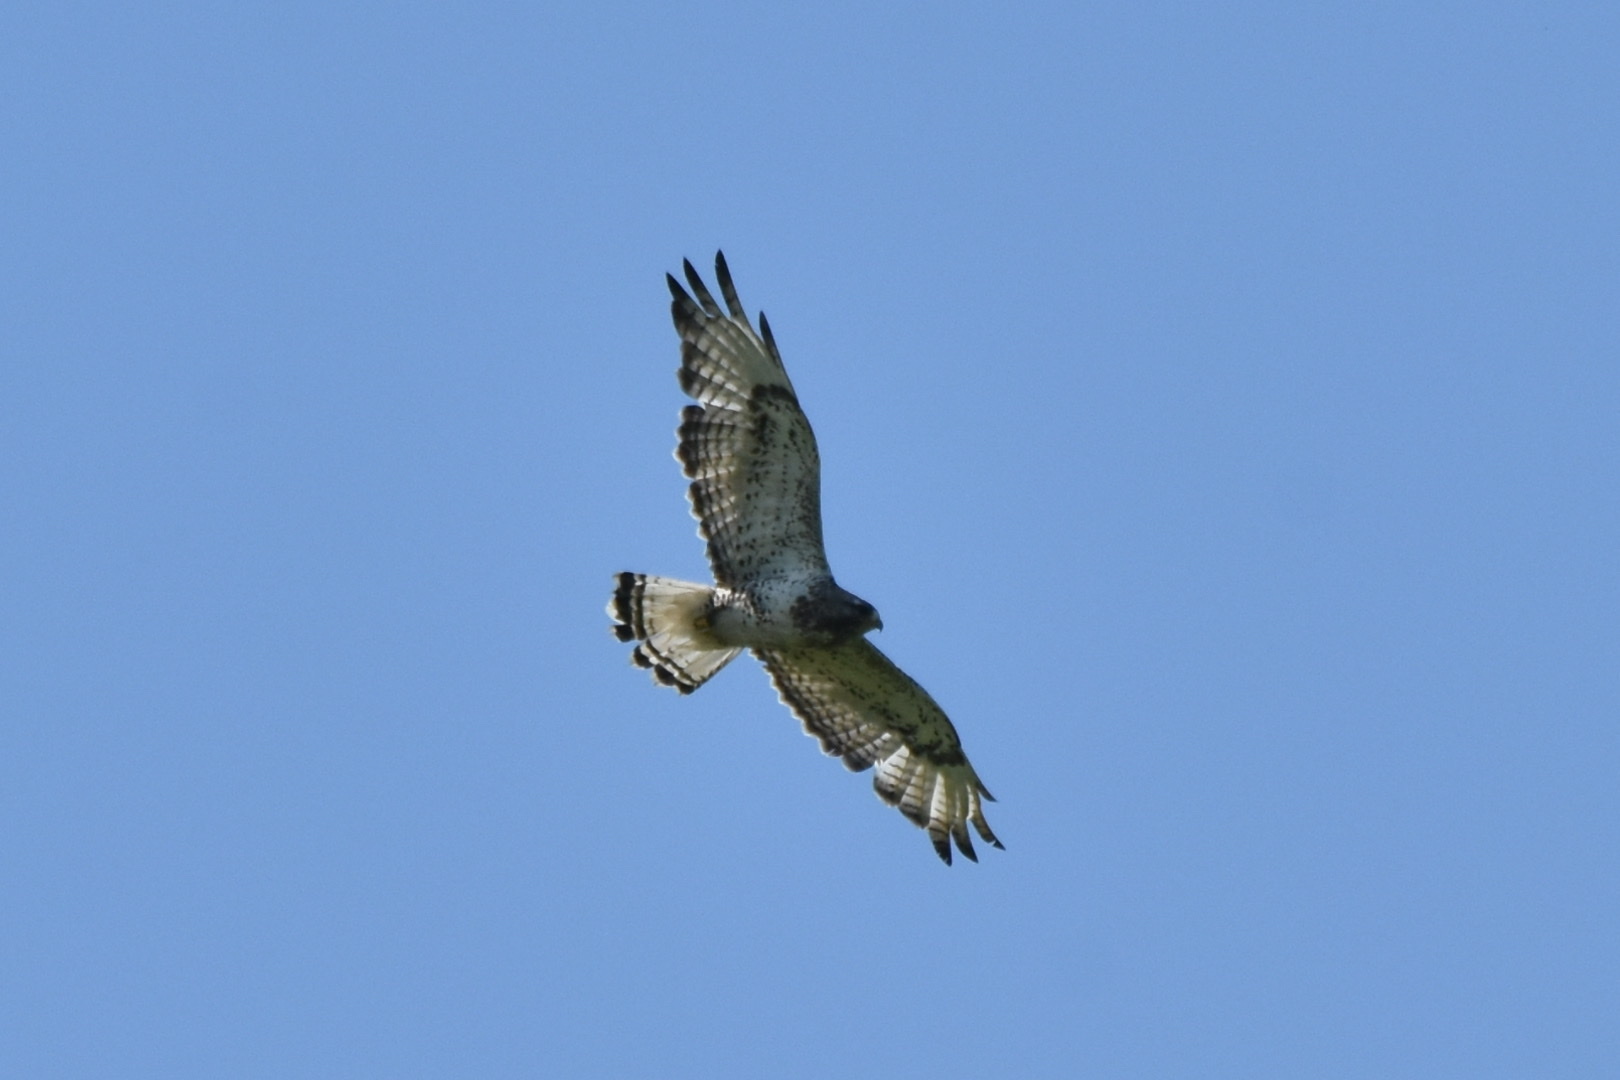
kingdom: Animalia
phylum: Chordata
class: Aves
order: Accipitriformes
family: Accipitridae
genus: Buteo
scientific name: Buteo lagopus
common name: Rough-legged buzzard
